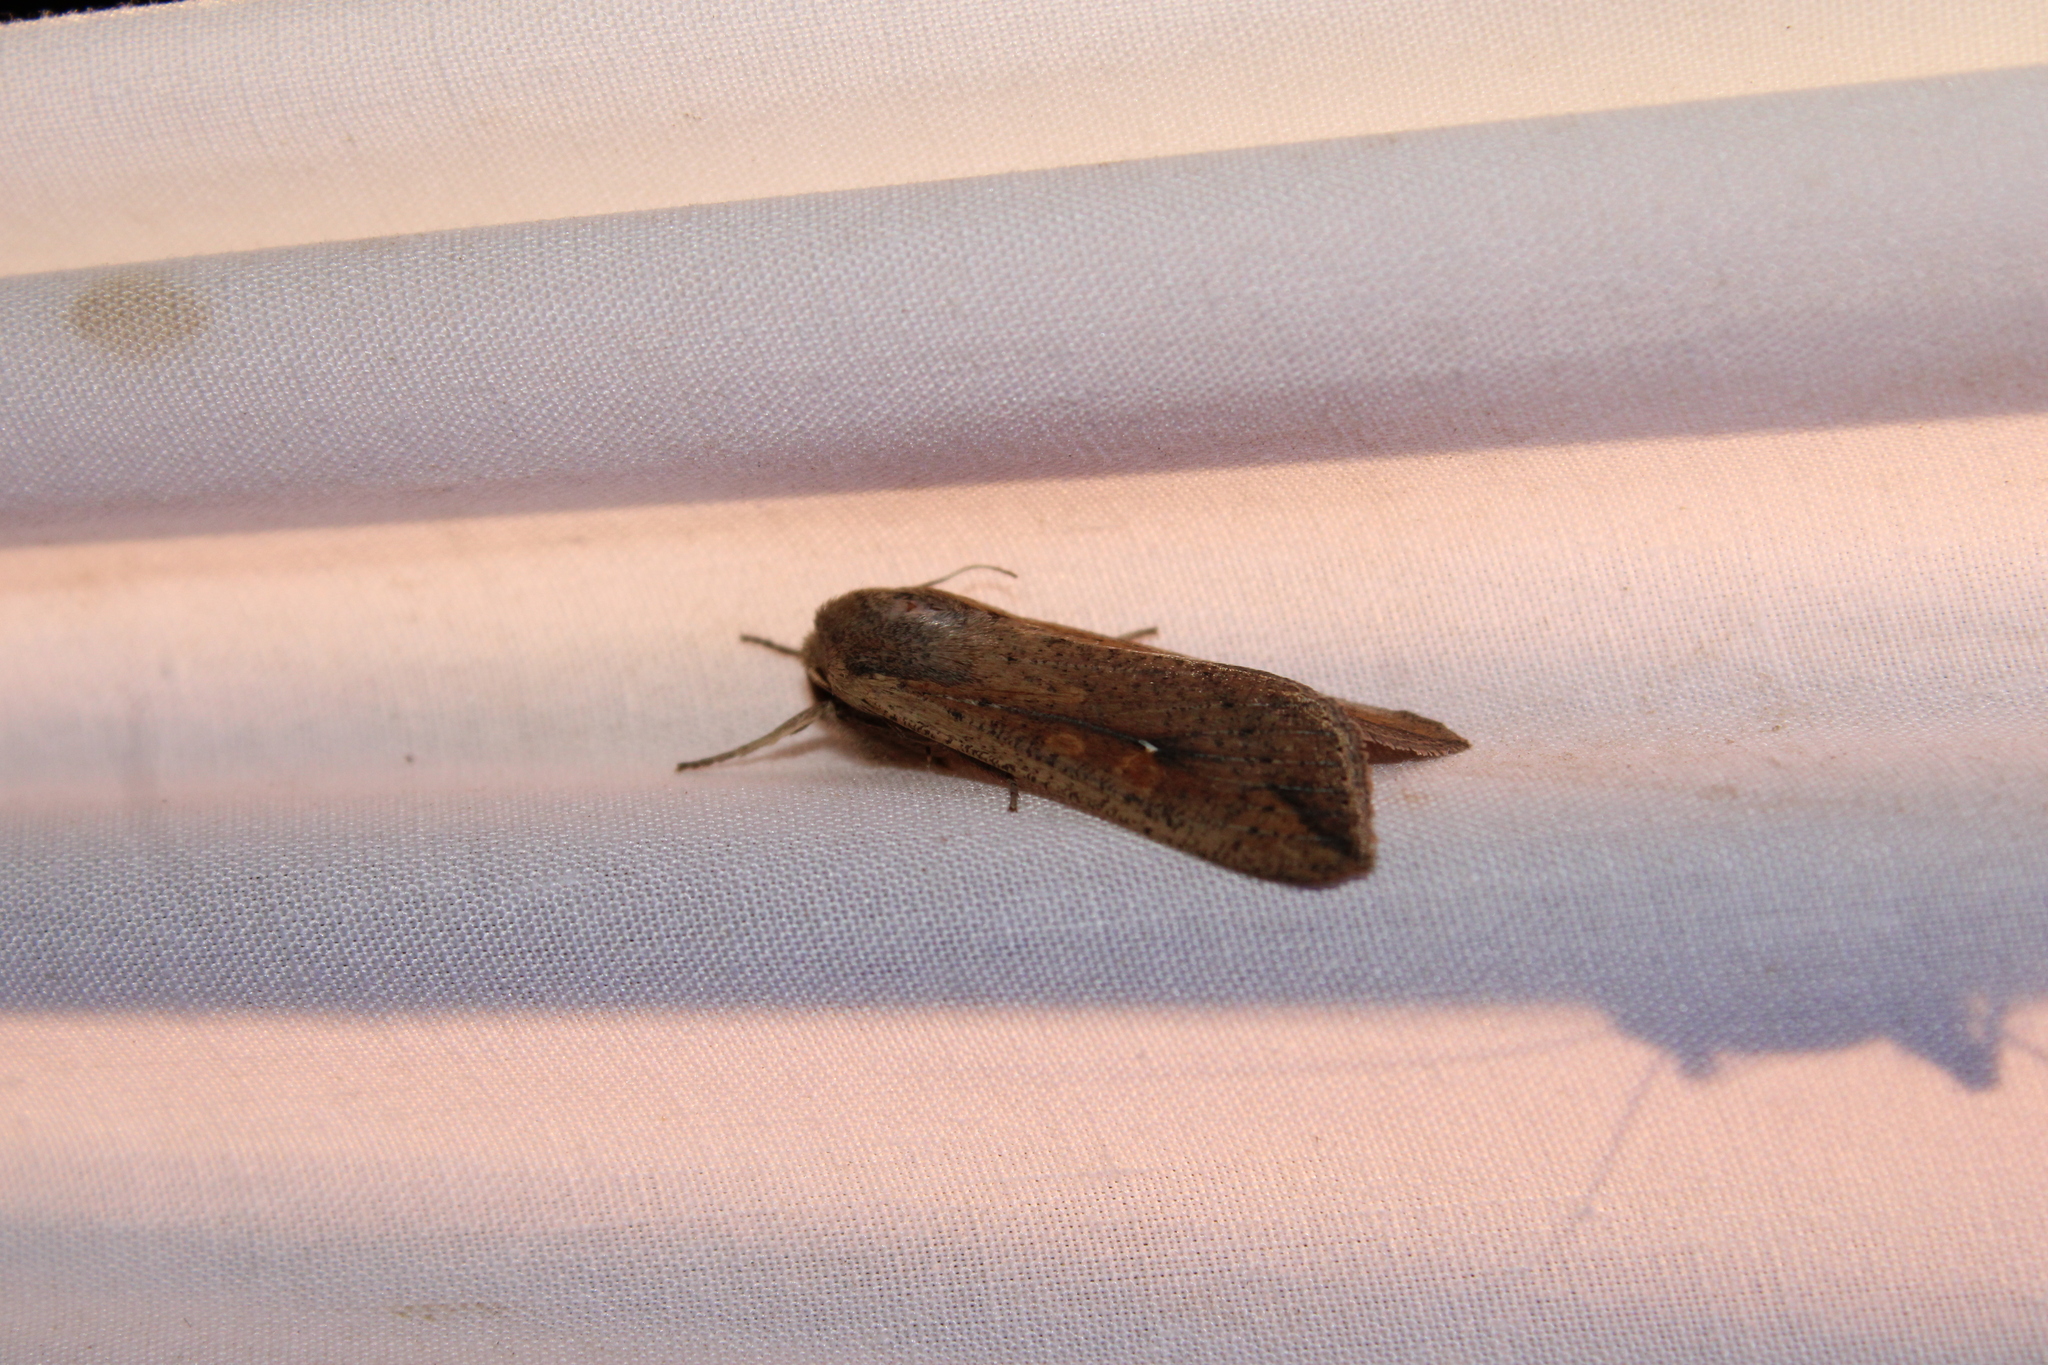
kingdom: Animalia
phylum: Arthropoda
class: Insecta
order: Lepidoptera
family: Noctuidae
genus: Mythimna
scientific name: Mythimna unipuncta
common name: White-speck
